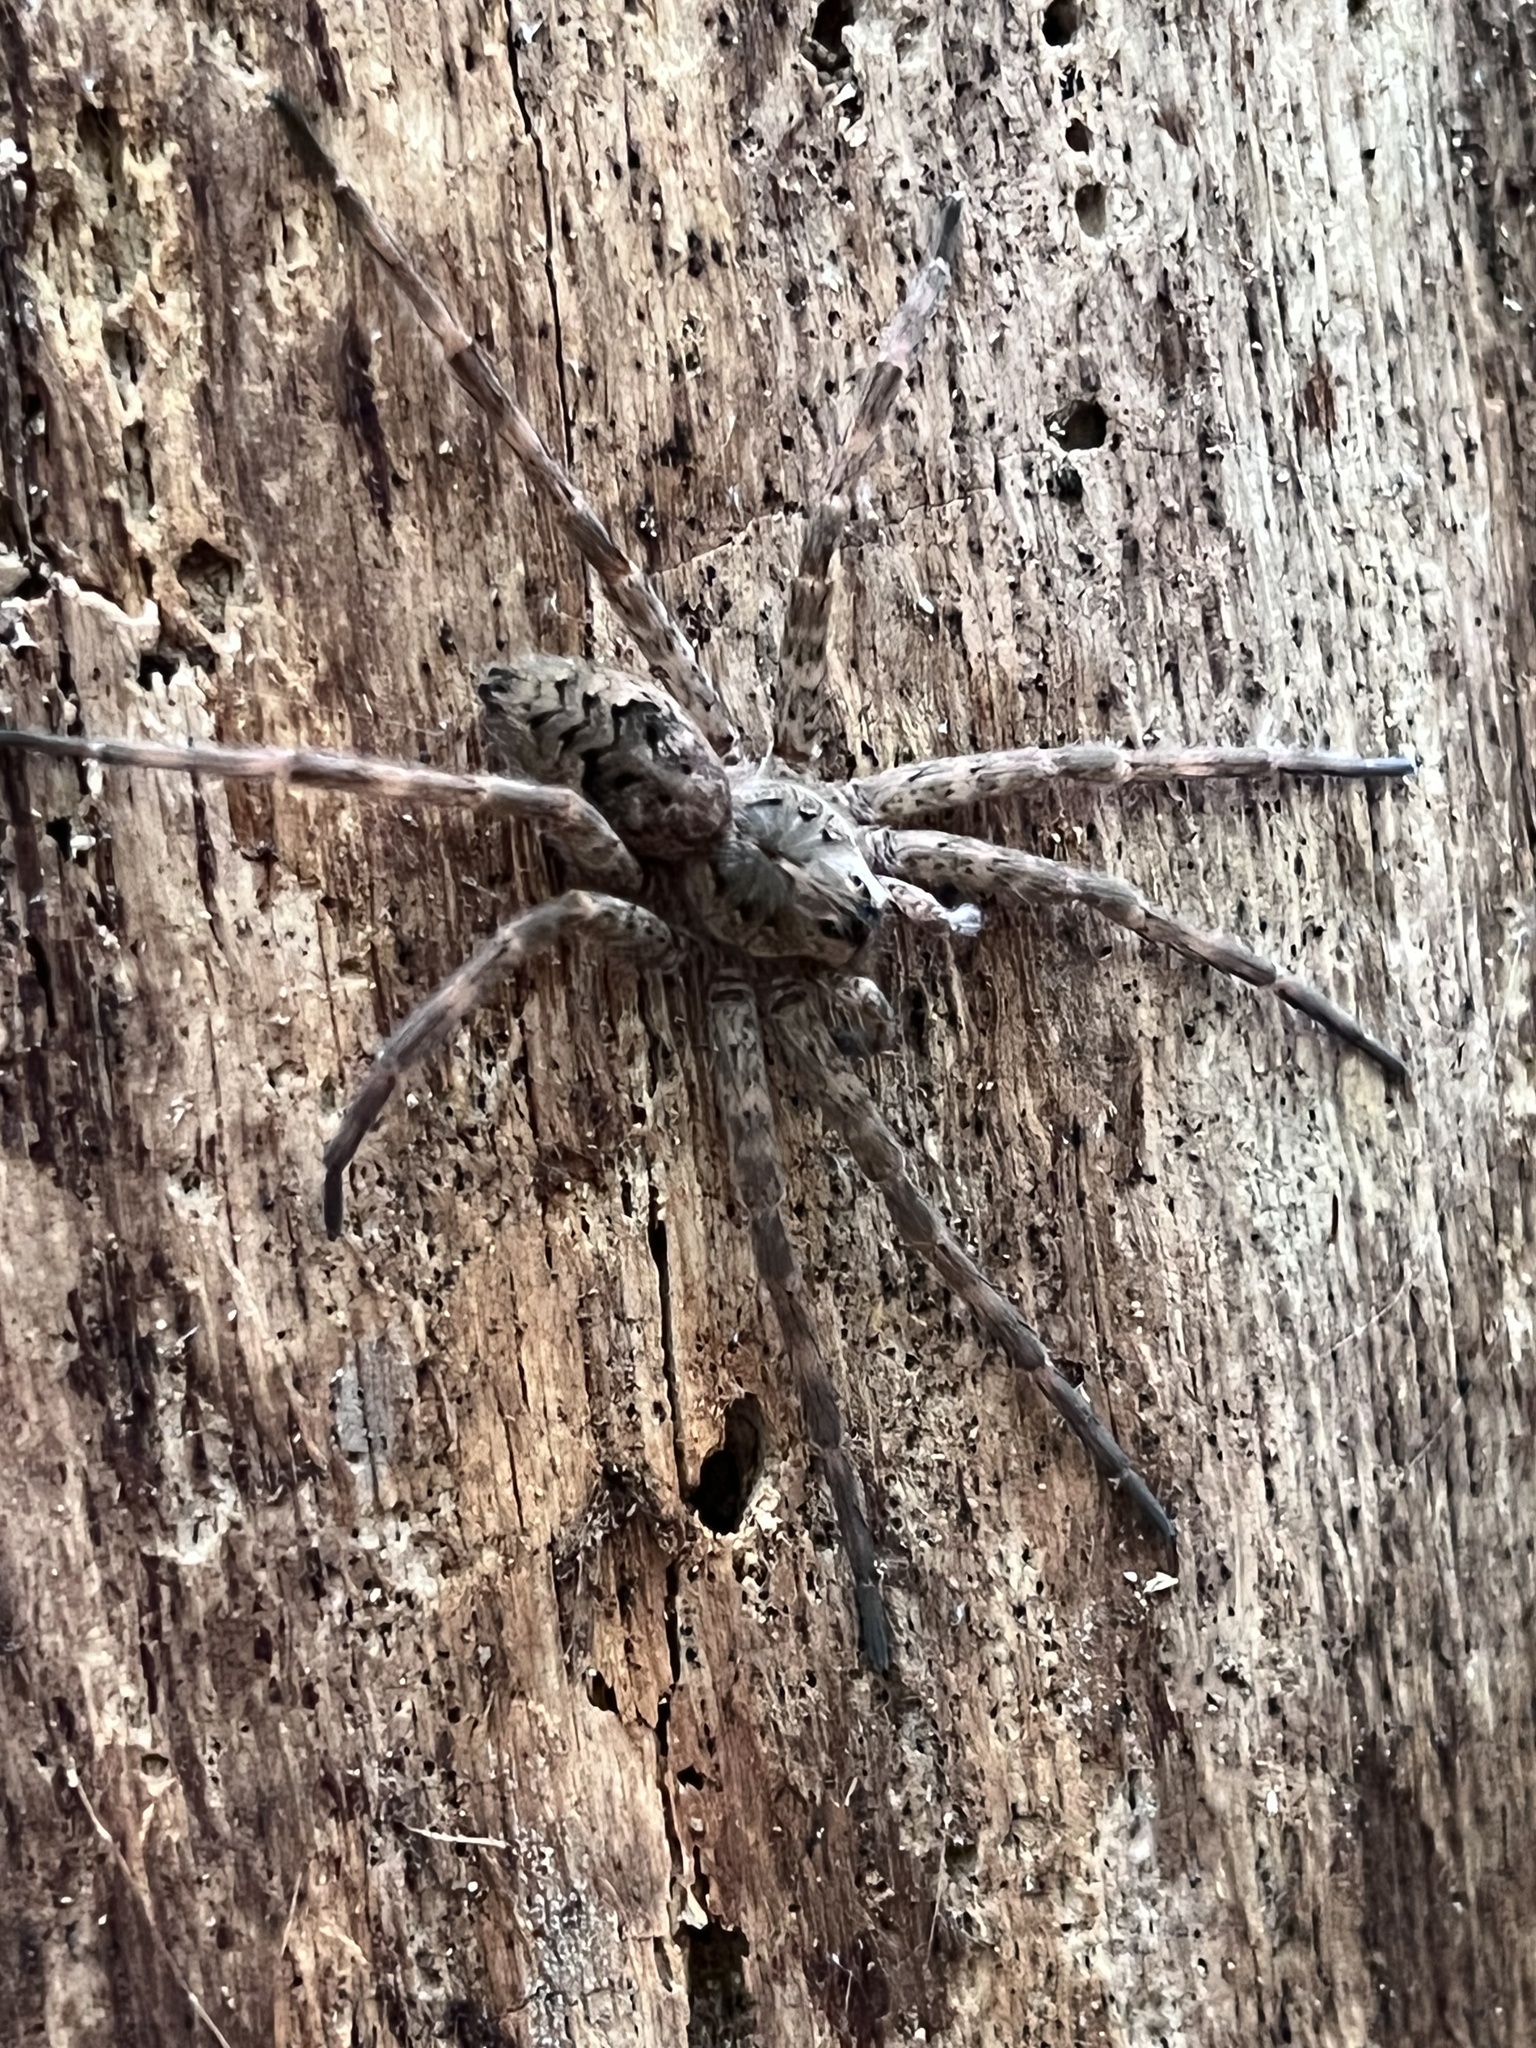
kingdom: Animalia
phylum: Arthropoda
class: Arachnida
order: Araneae
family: Pisauridae
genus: Dolomedes
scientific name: Dolomedes tenebrosus
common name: Dark fishing spider
